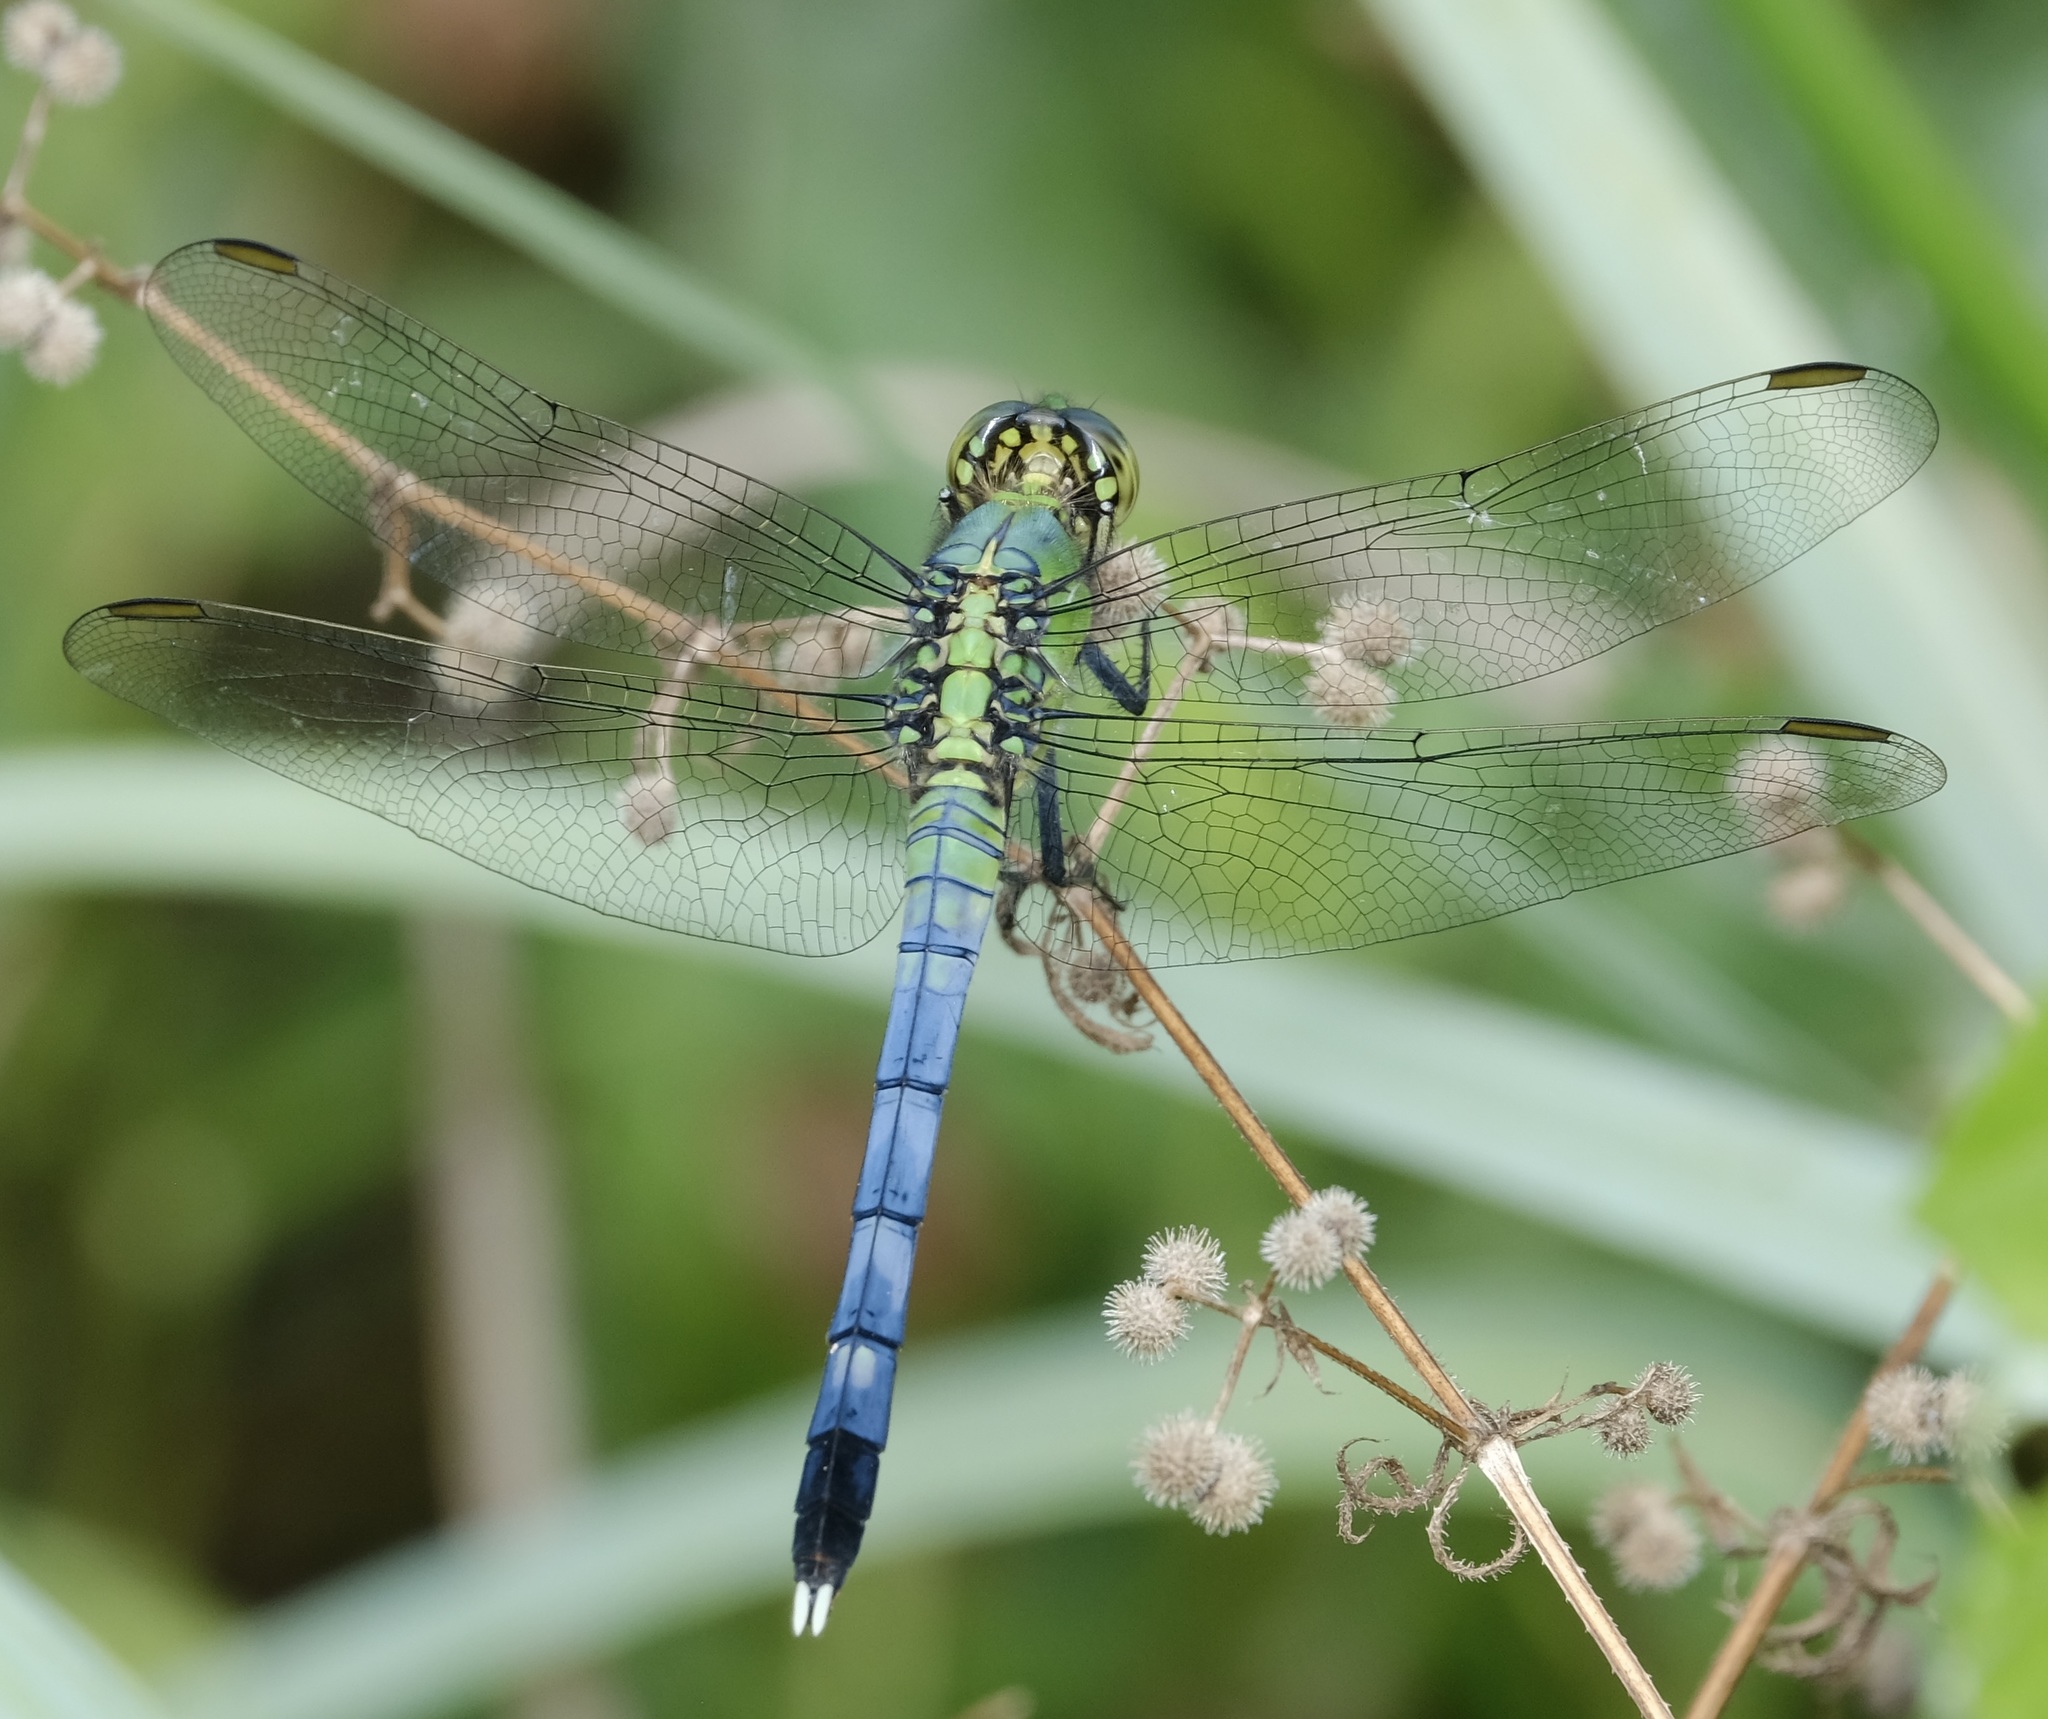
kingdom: Animalia
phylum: Arthropoda
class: Insecta
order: Odonata
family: Libellulidae
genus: Erythemis
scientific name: Erythemis simplicicollis
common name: Eastern pondhawk
